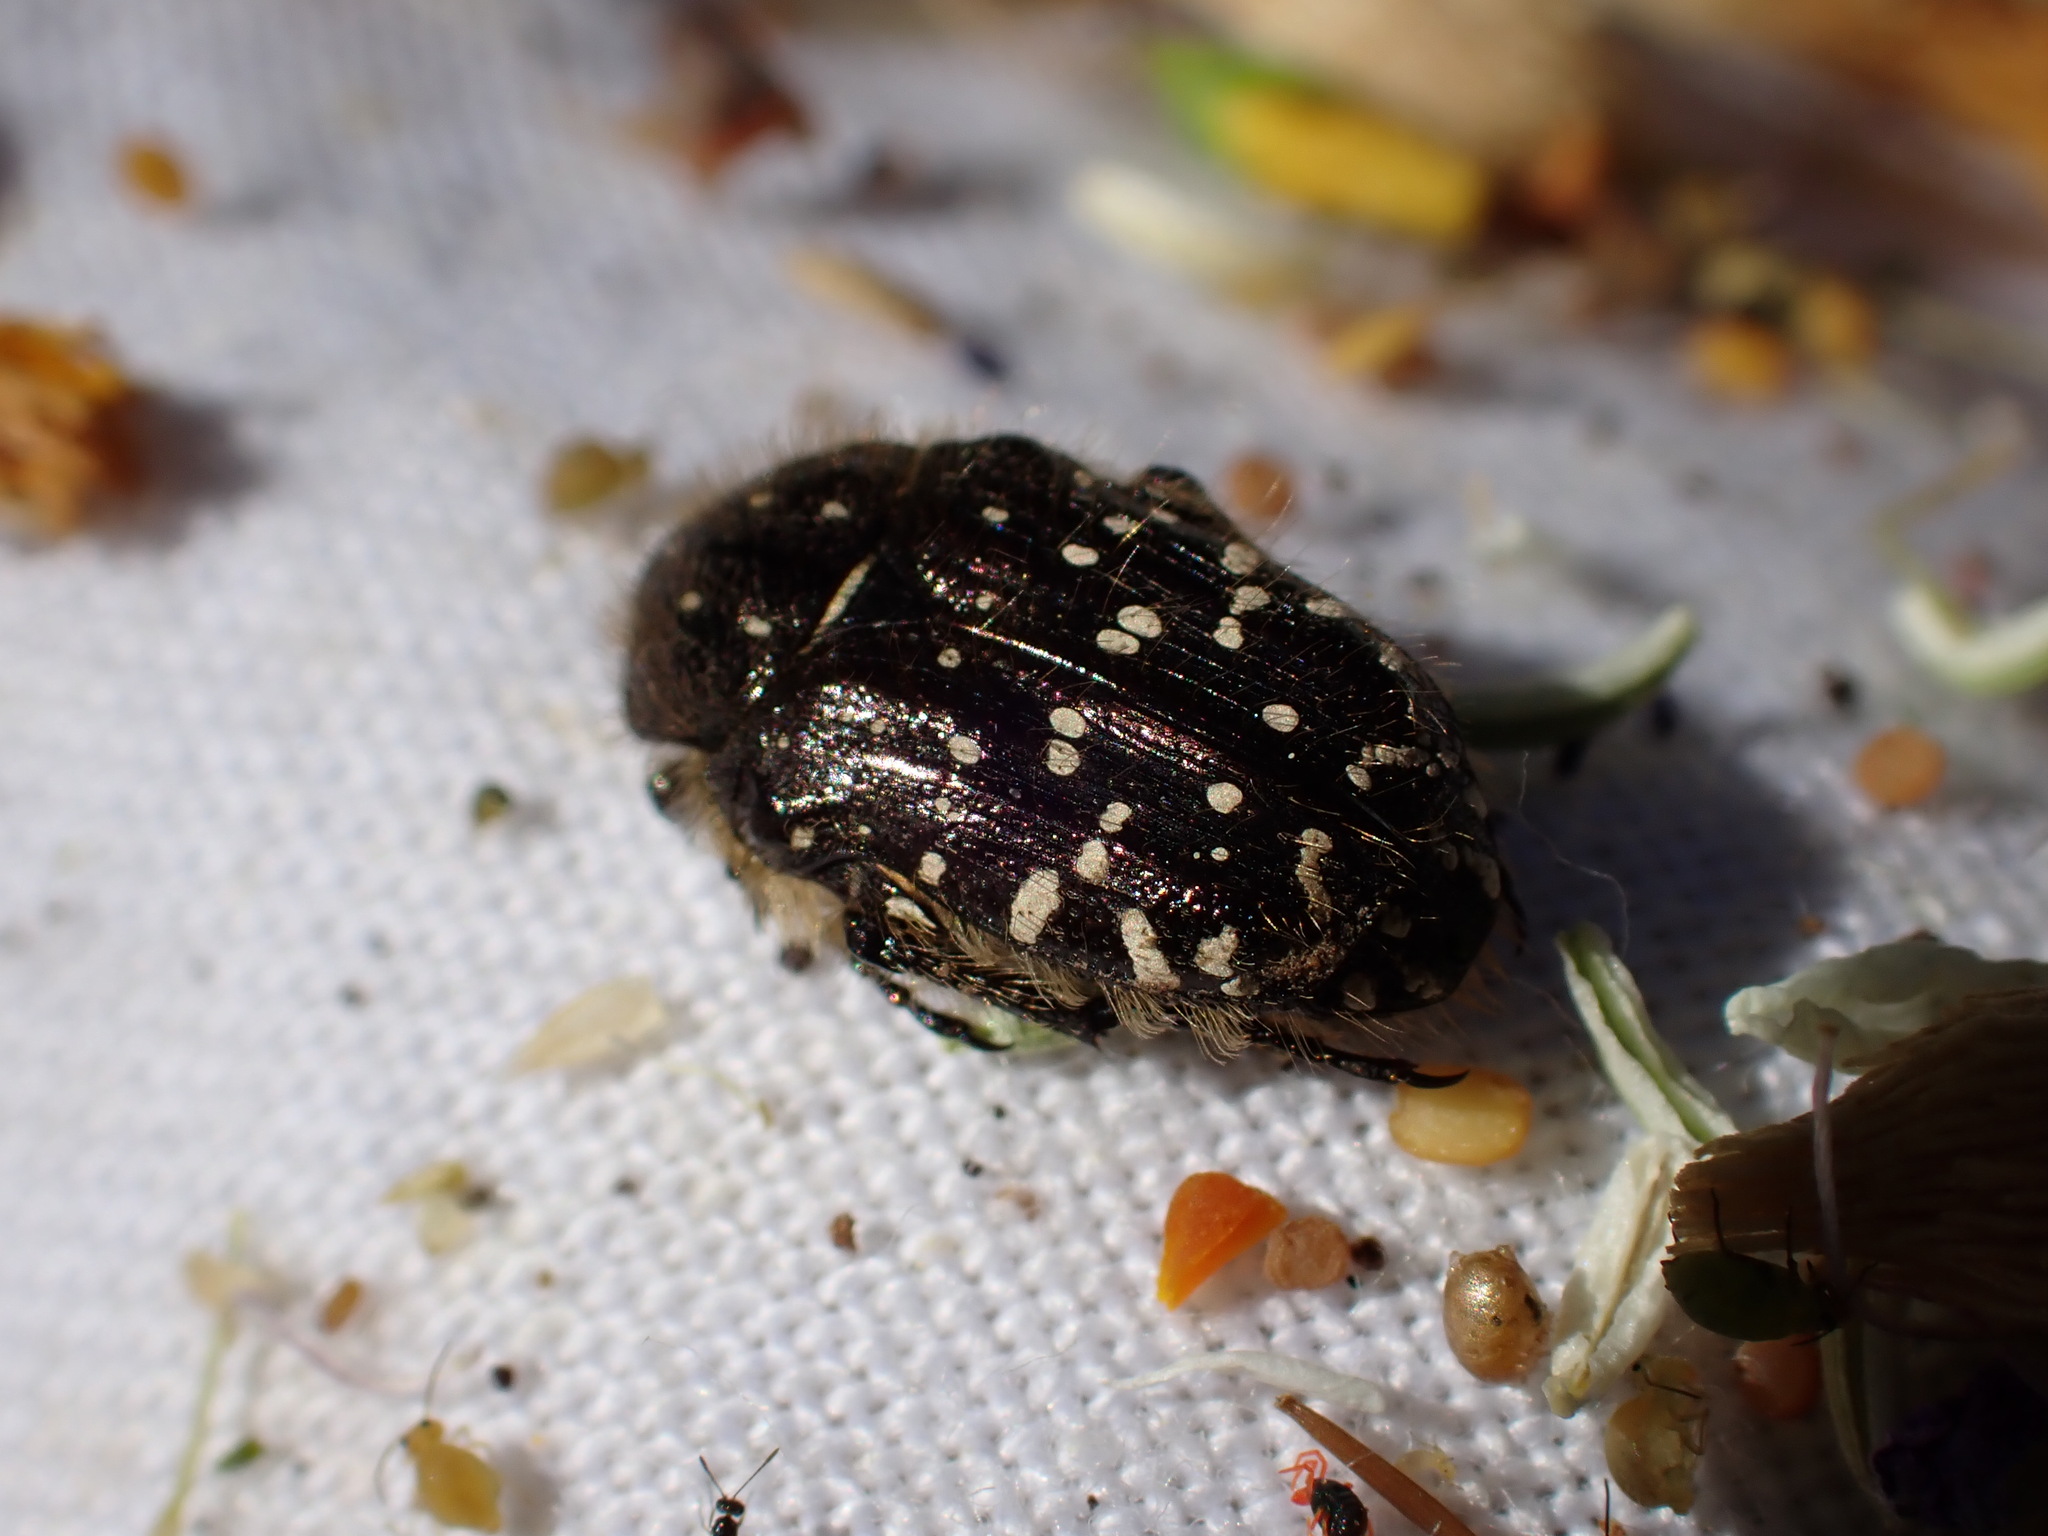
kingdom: Animalia
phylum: Arthropoda
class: Insecta
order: Coleoptera
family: Scarabaeidae
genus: Oxythyrea
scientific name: Oxythyrea funesta
